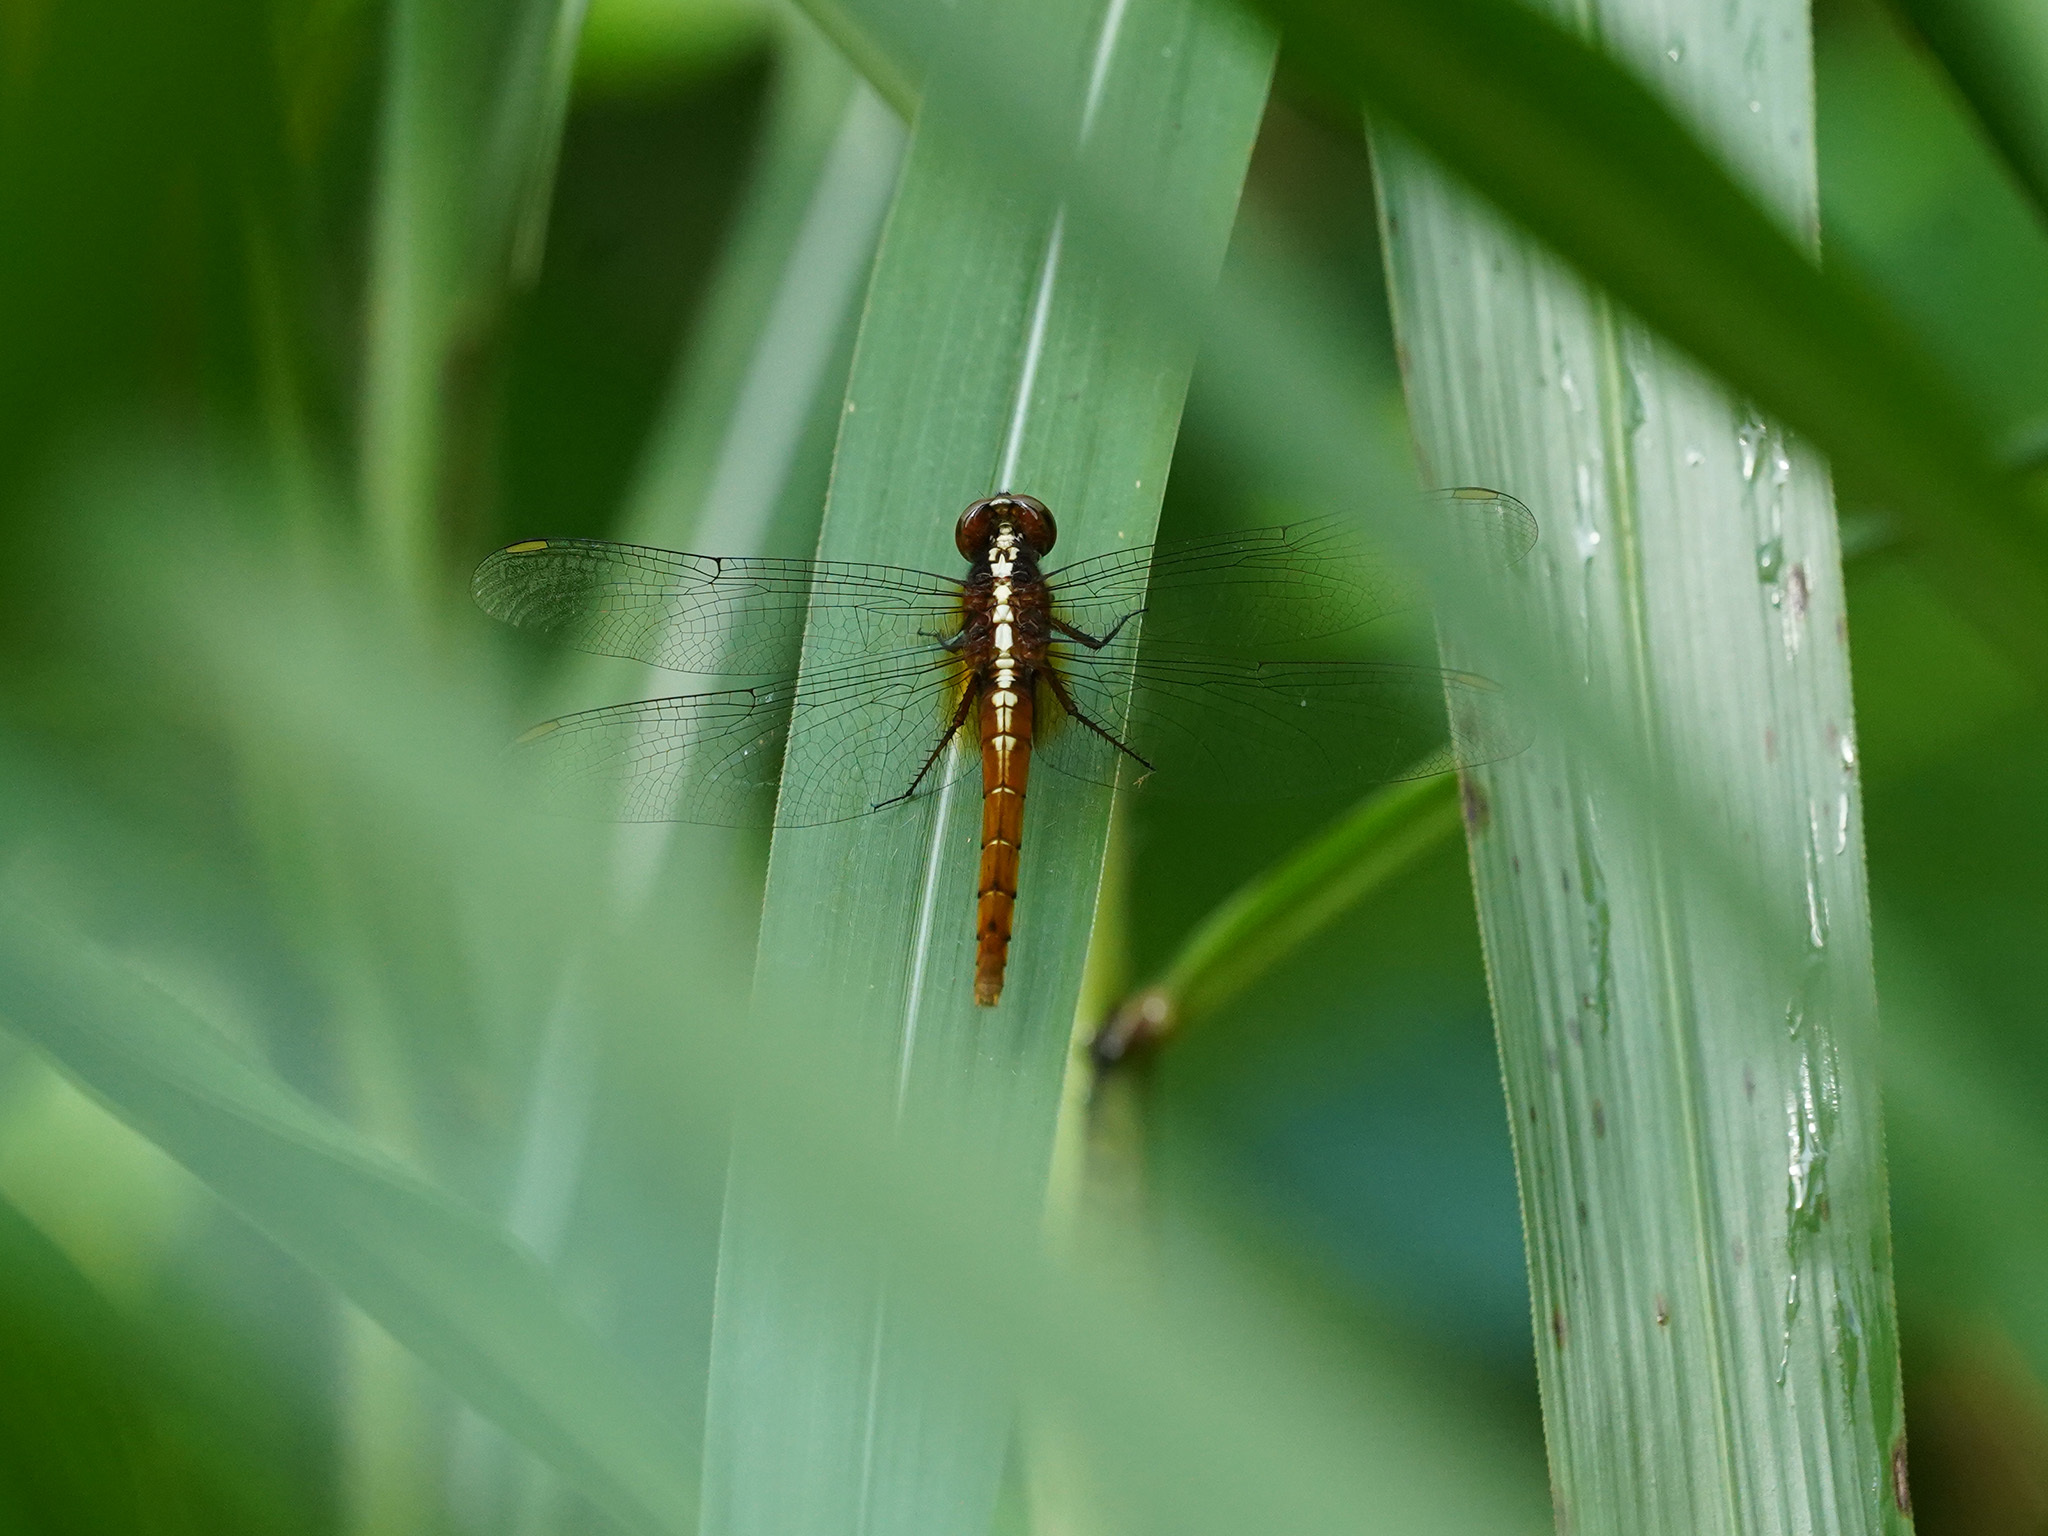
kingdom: Animalia
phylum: Arthropoda
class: Insecta
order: Odonata
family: Libellulidae
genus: Rhodothemis
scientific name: Rhodothemis rufa
